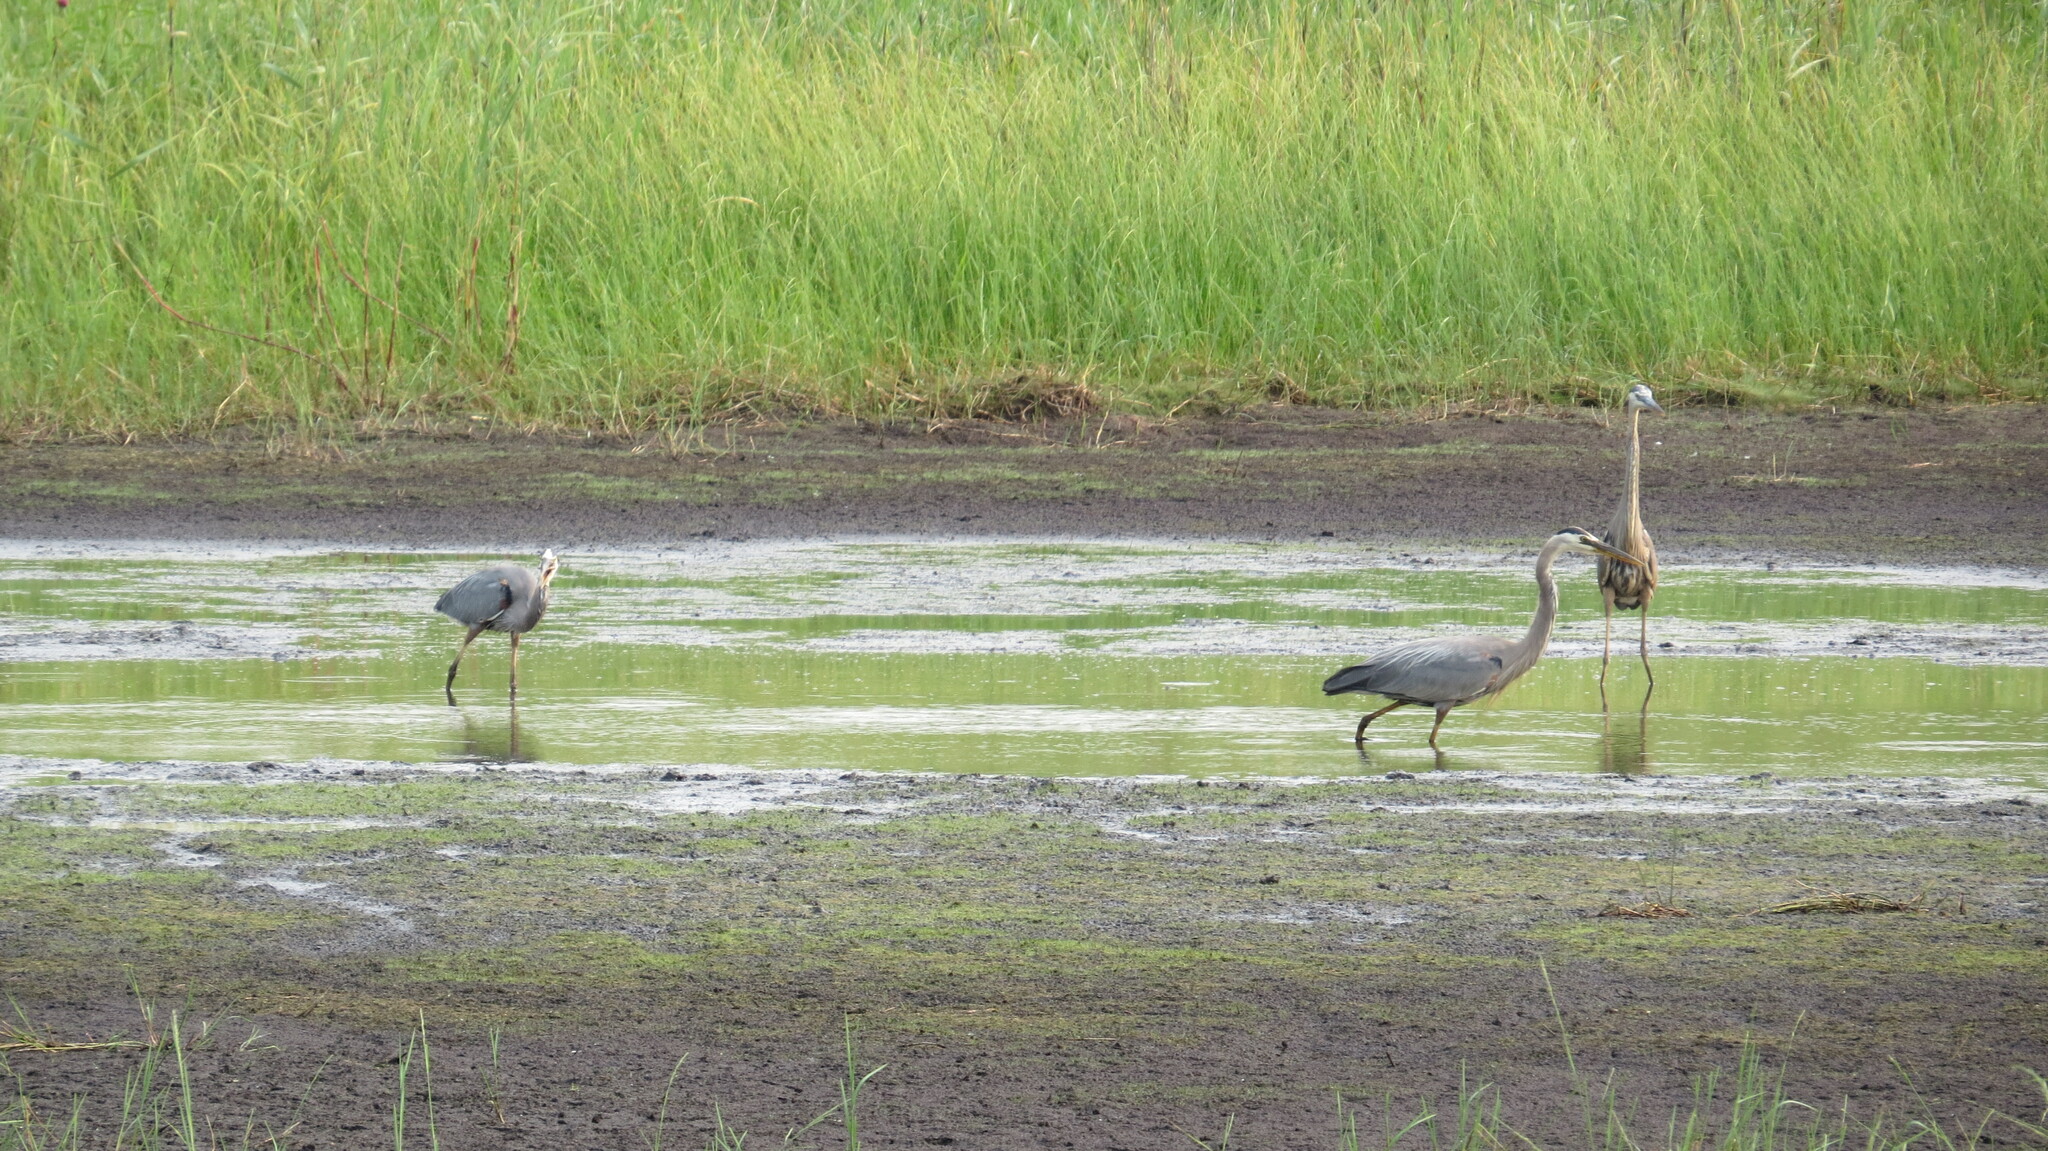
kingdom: Animalia
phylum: Chordata
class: Aves
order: Pelecaniformes
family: Ardeidae
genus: Ardea
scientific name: Ardea herodias
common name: Great blue heron
